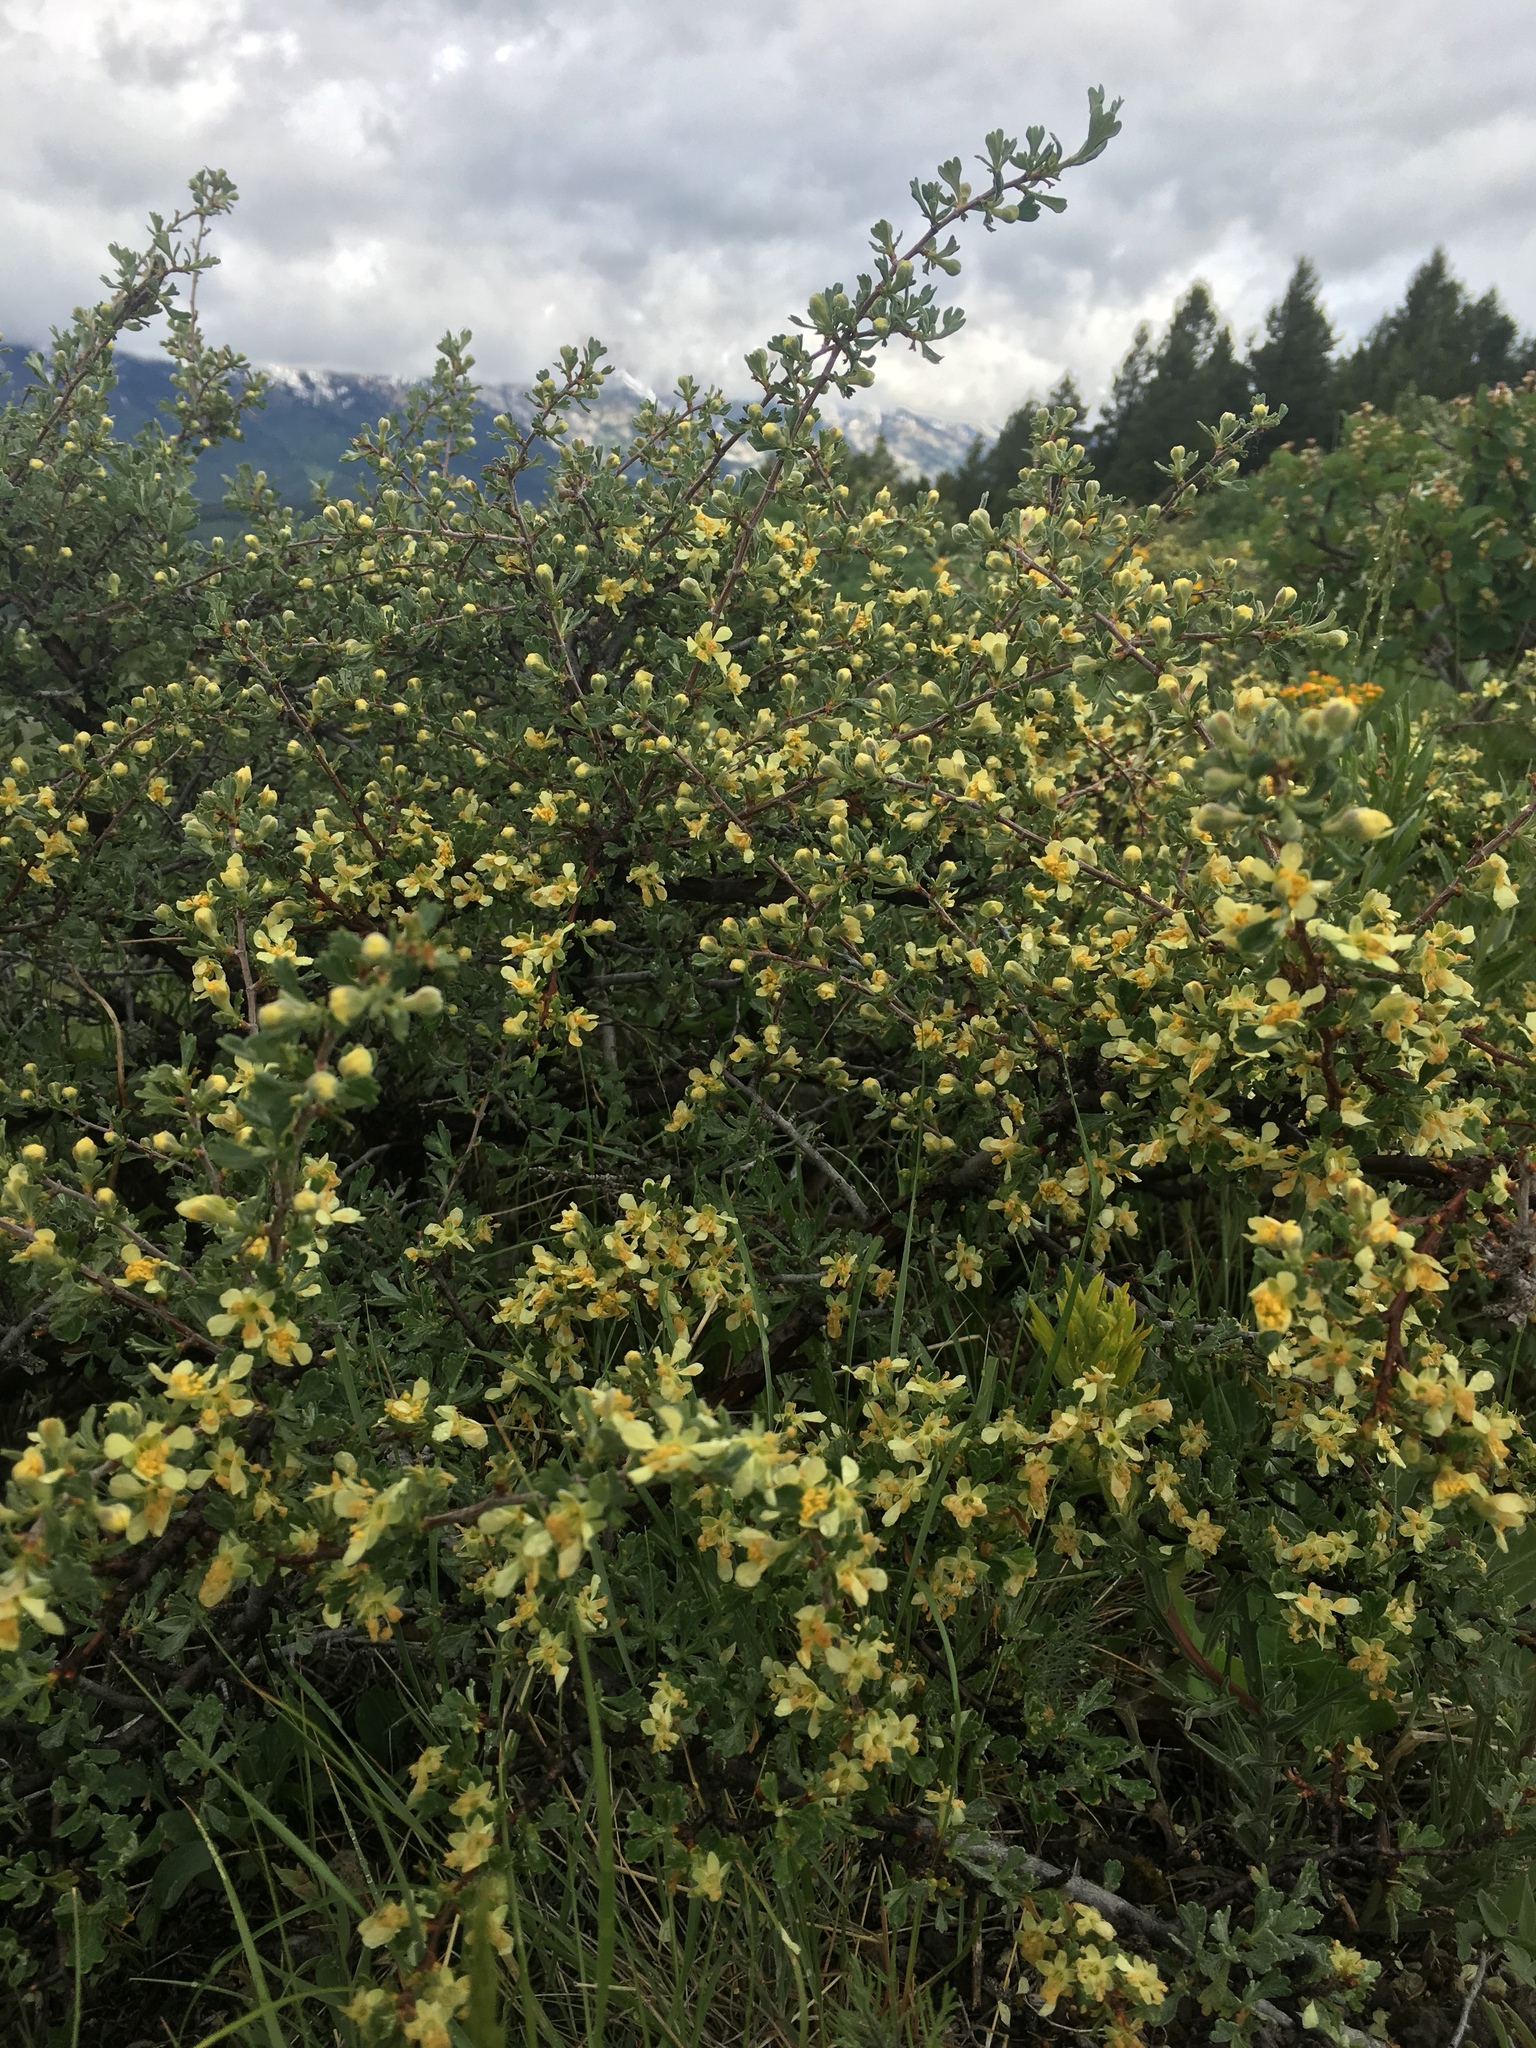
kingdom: Plantae
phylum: Tracheophyta
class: Magnoliopsida
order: Rosales
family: Rosaceae
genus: Purshia
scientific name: Purshia tridentata
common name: Antelope bitterbrush
